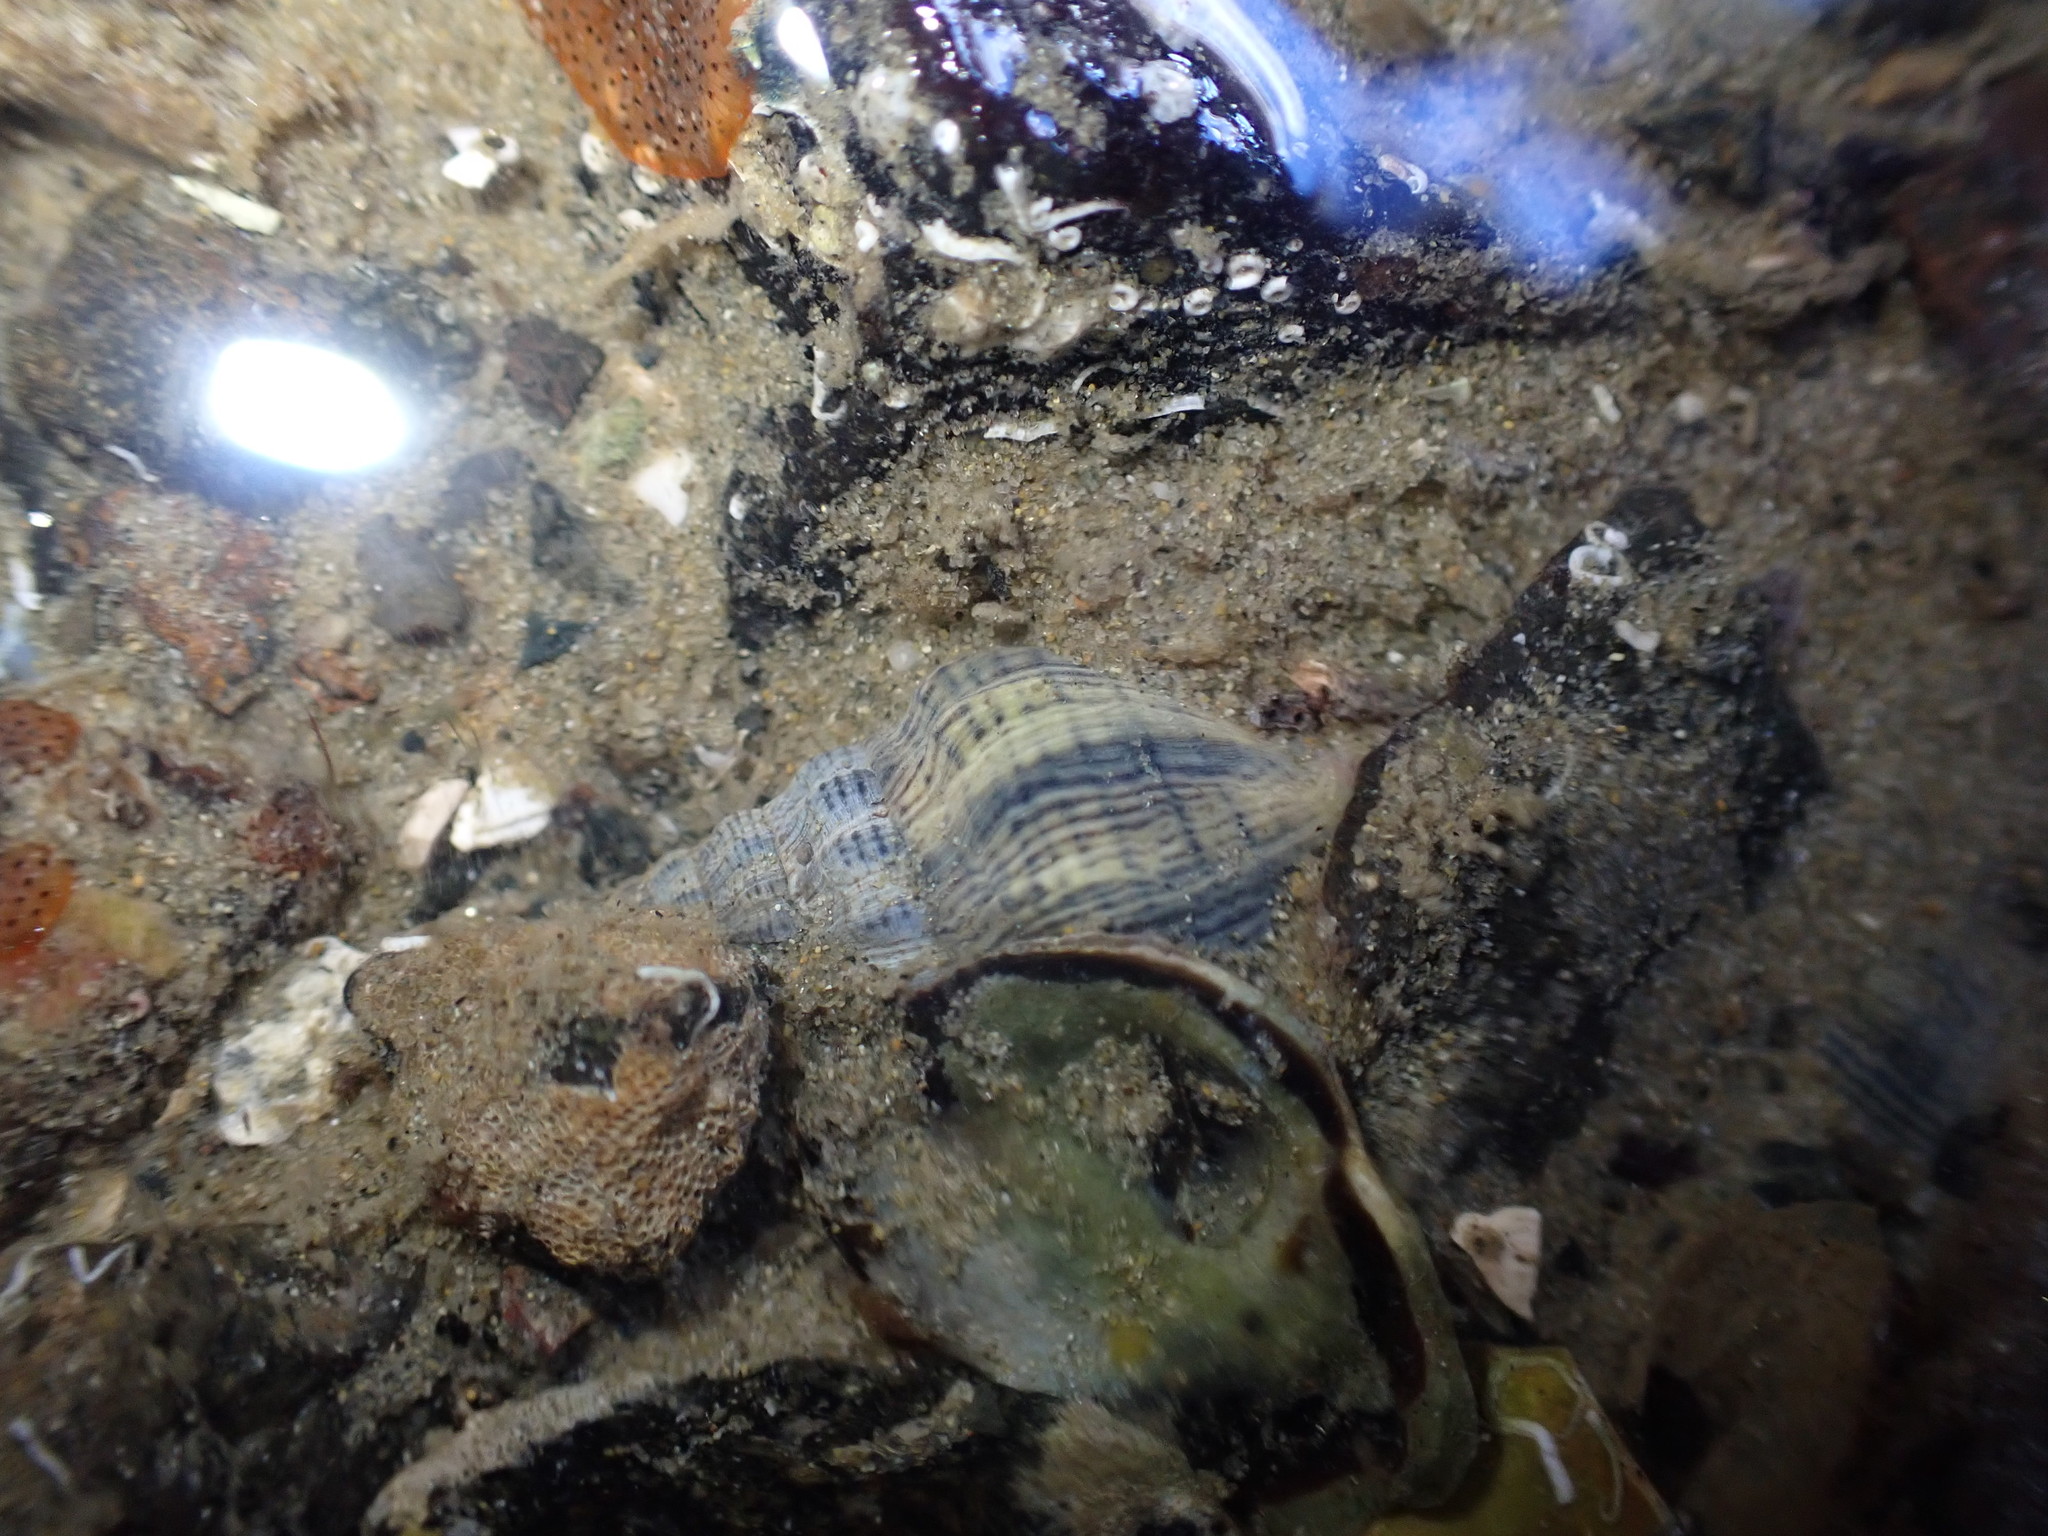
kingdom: Animalia
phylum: Mollusca
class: Gastropoda
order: Neogastropoda
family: Cominellidae
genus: Cominella
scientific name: Cominella virgata
